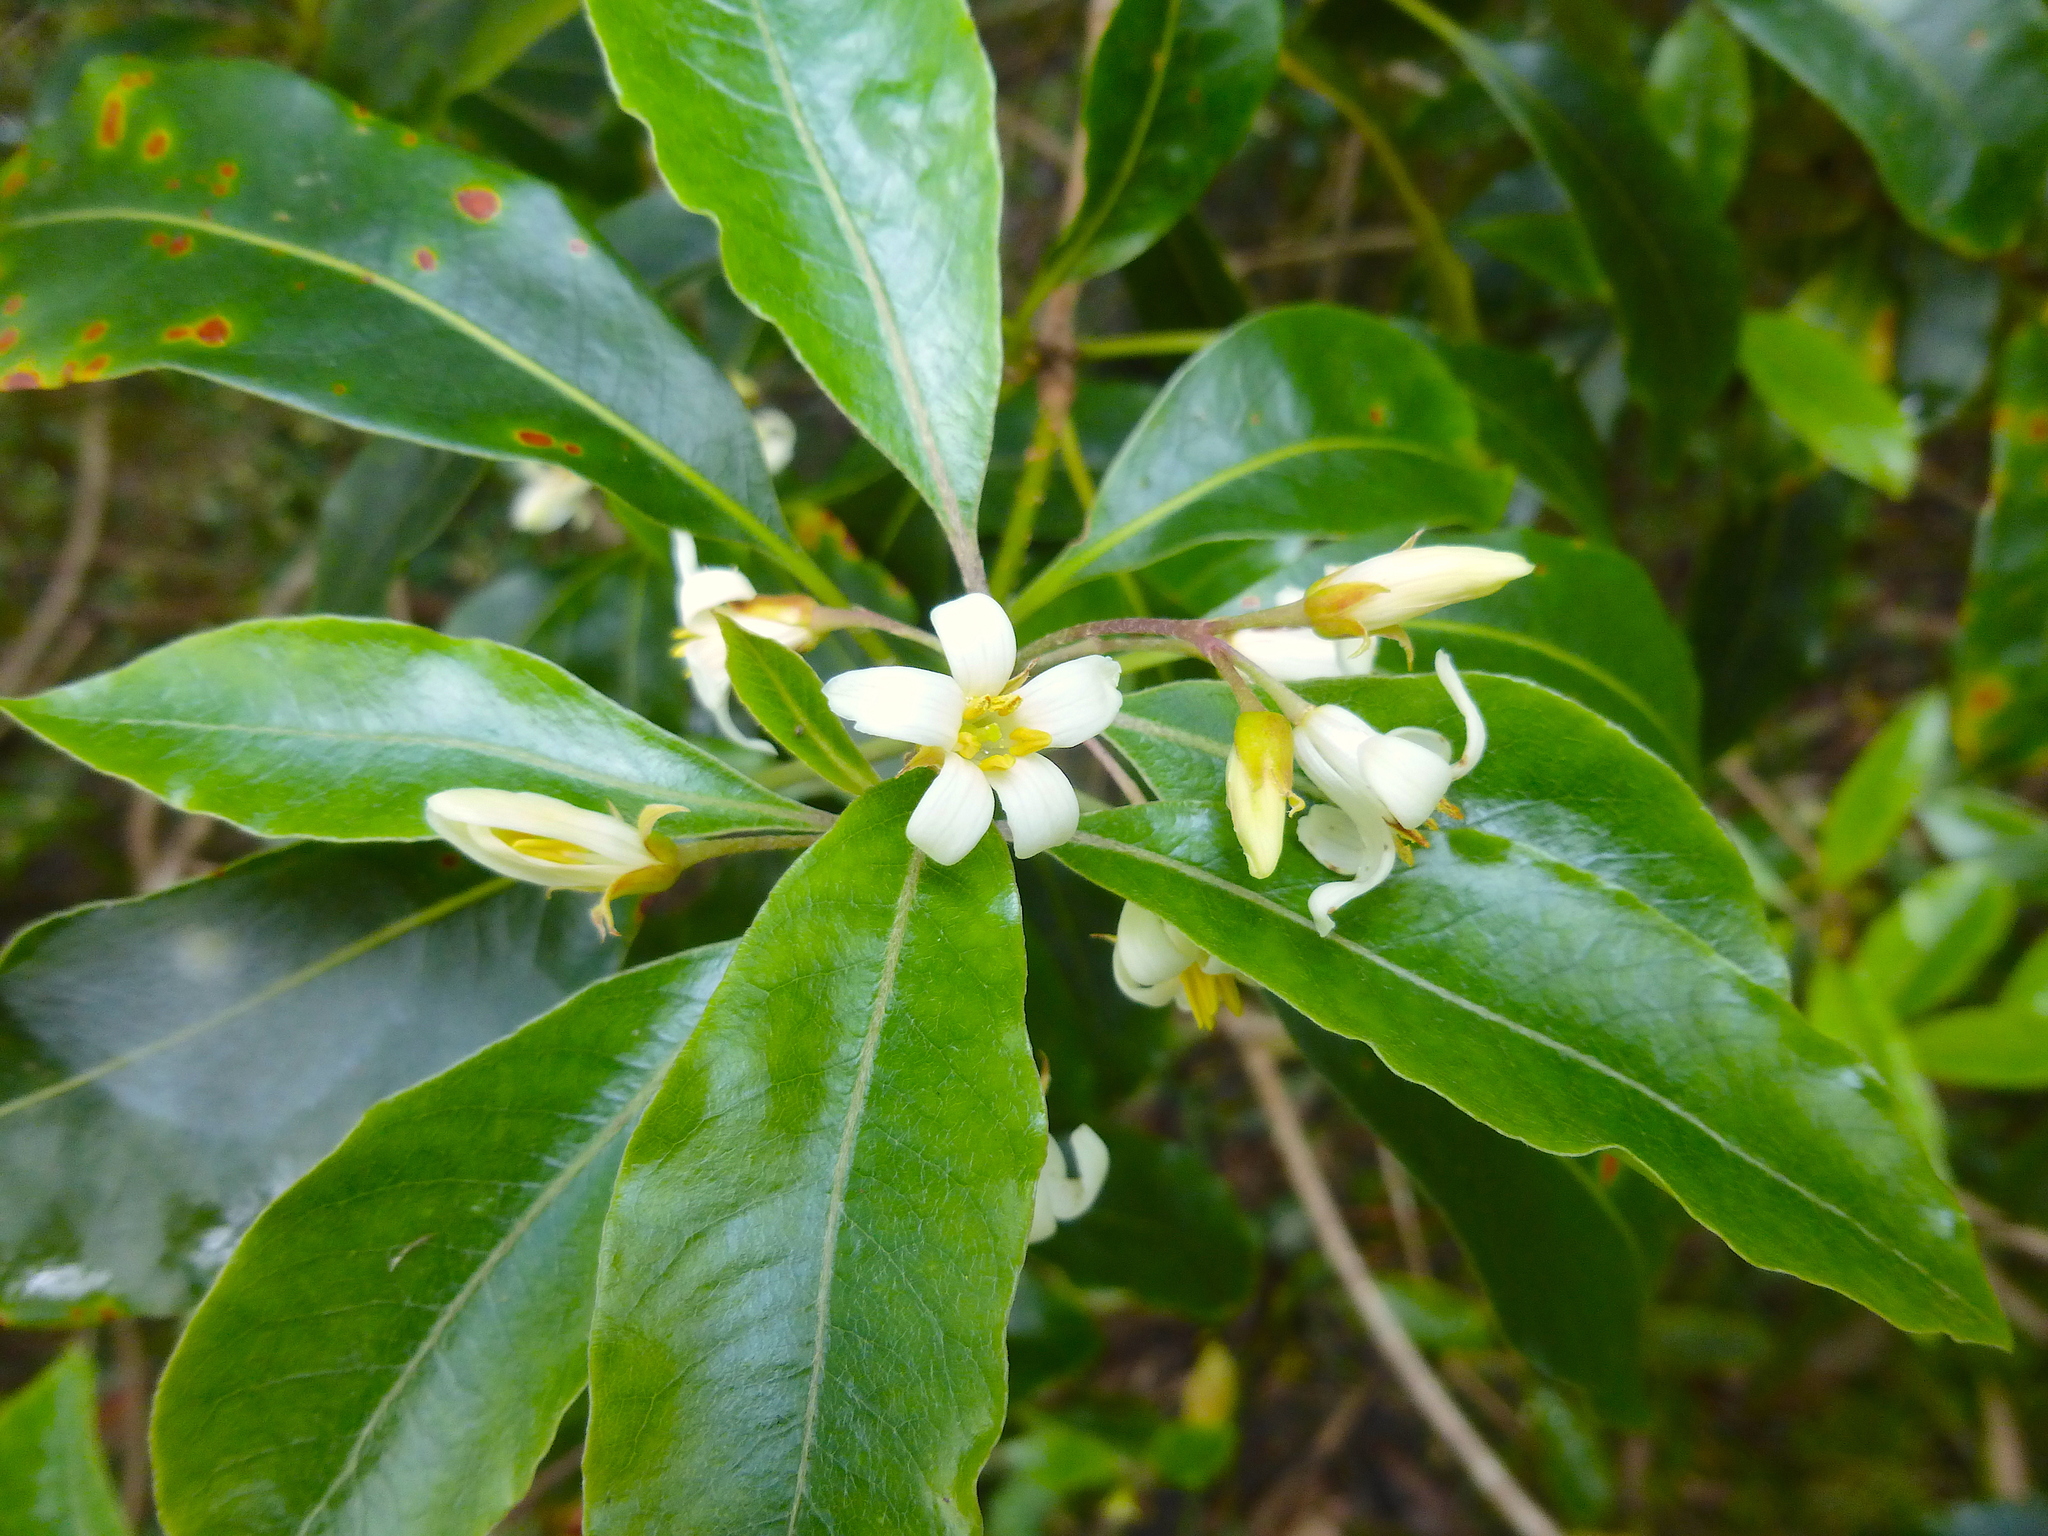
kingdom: Plantae
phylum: Tracheophyta
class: Magnoliopsida
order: Apiales
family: Pittosporaceae
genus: Pittosporum
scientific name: Pittosporum undulatum
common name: Australian cheesewood
